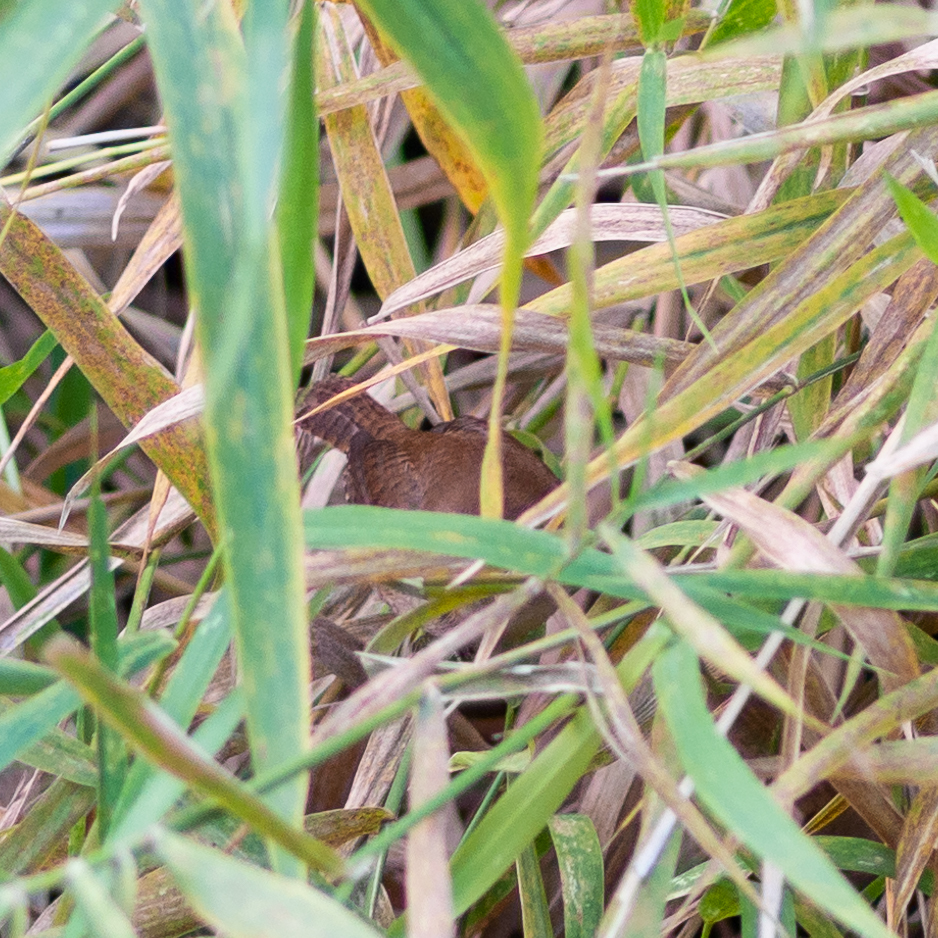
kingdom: Animalia
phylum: Chordata
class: Aves
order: Passeriformes
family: Troglodytidae
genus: Troglodytes
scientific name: Troglodytes troglodytes
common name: Eurasian wren
